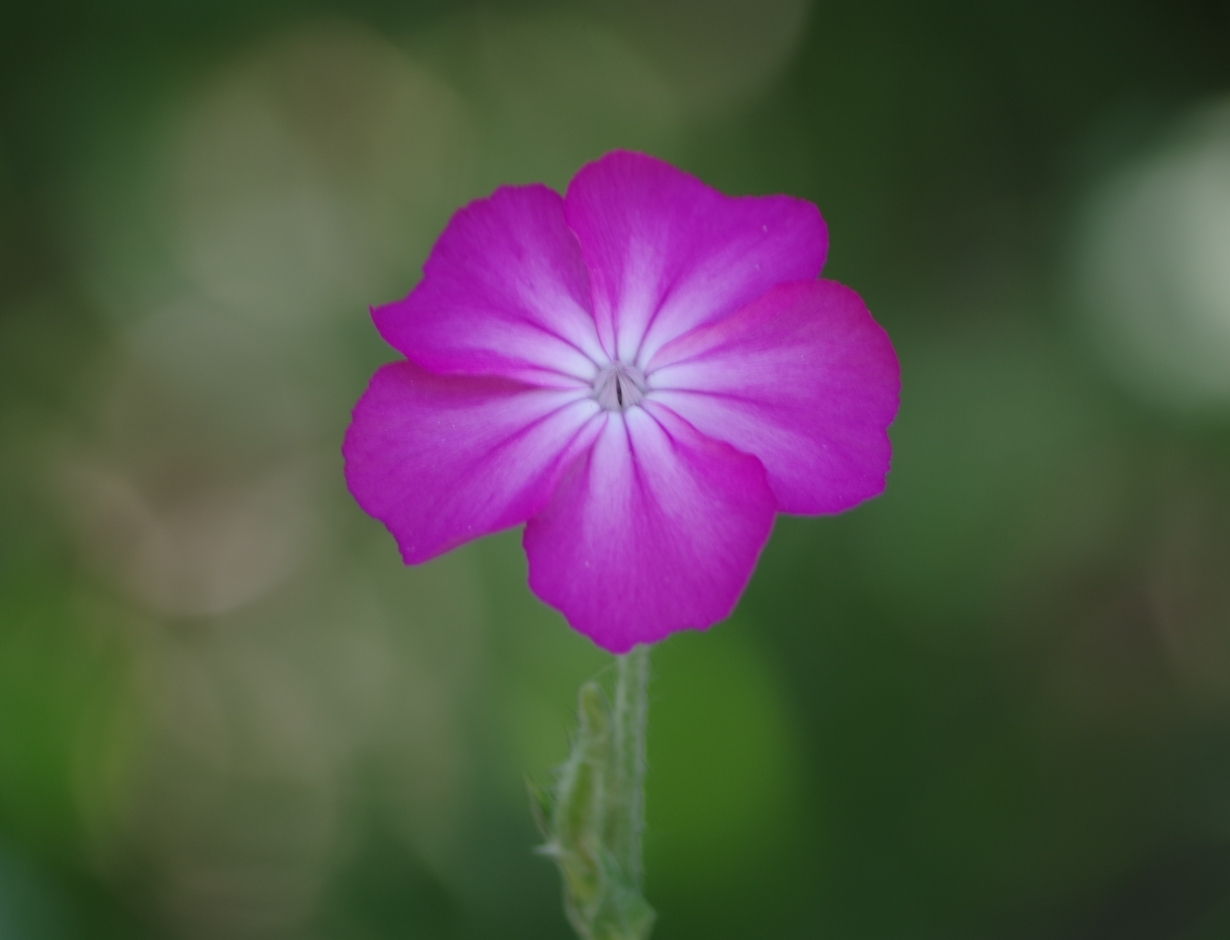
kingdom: Plantae
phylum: Tracheophyta
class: Magnoliopsida
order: Caryophyllales
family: Caryophyllaceae
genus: Silene
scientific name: Silene coronaria
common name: Rose campion
